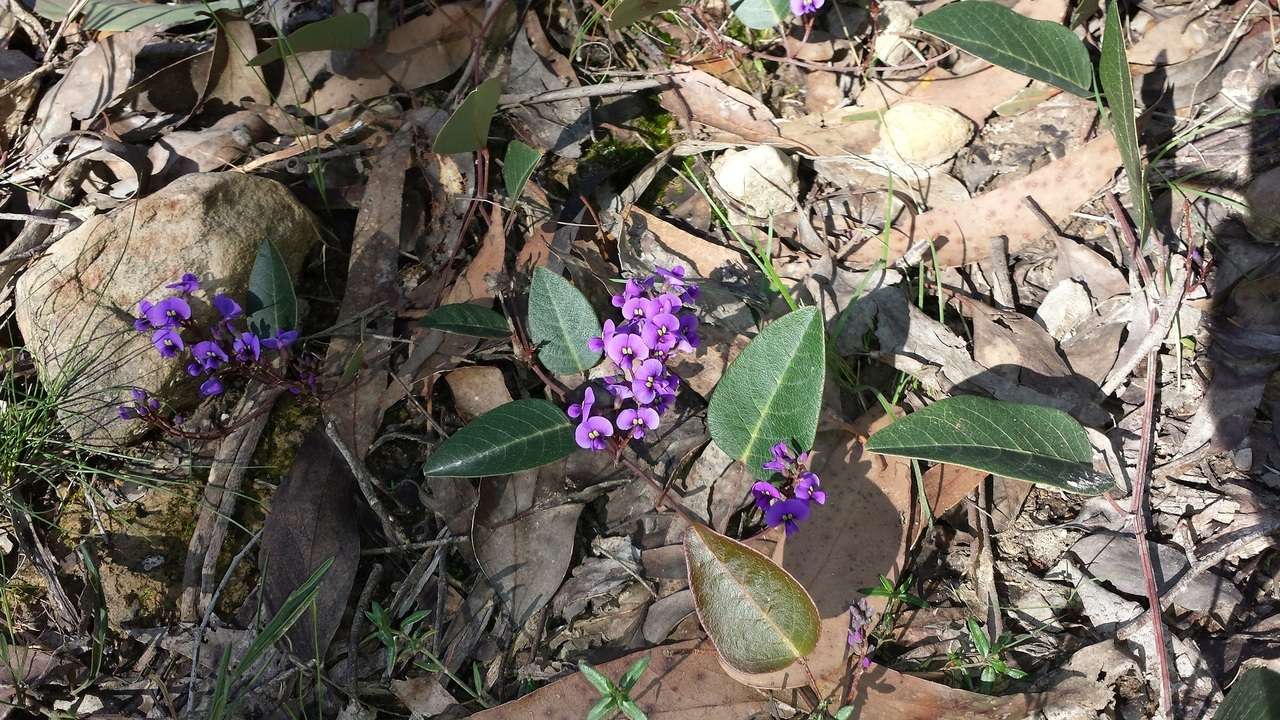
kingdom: Plantae
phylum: Tracheophyta
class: Magnoliopsida
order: Fabales
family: Fabaceae
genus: Hardenbergia
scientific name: Hardenbergia violacea
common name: Coral-pea
